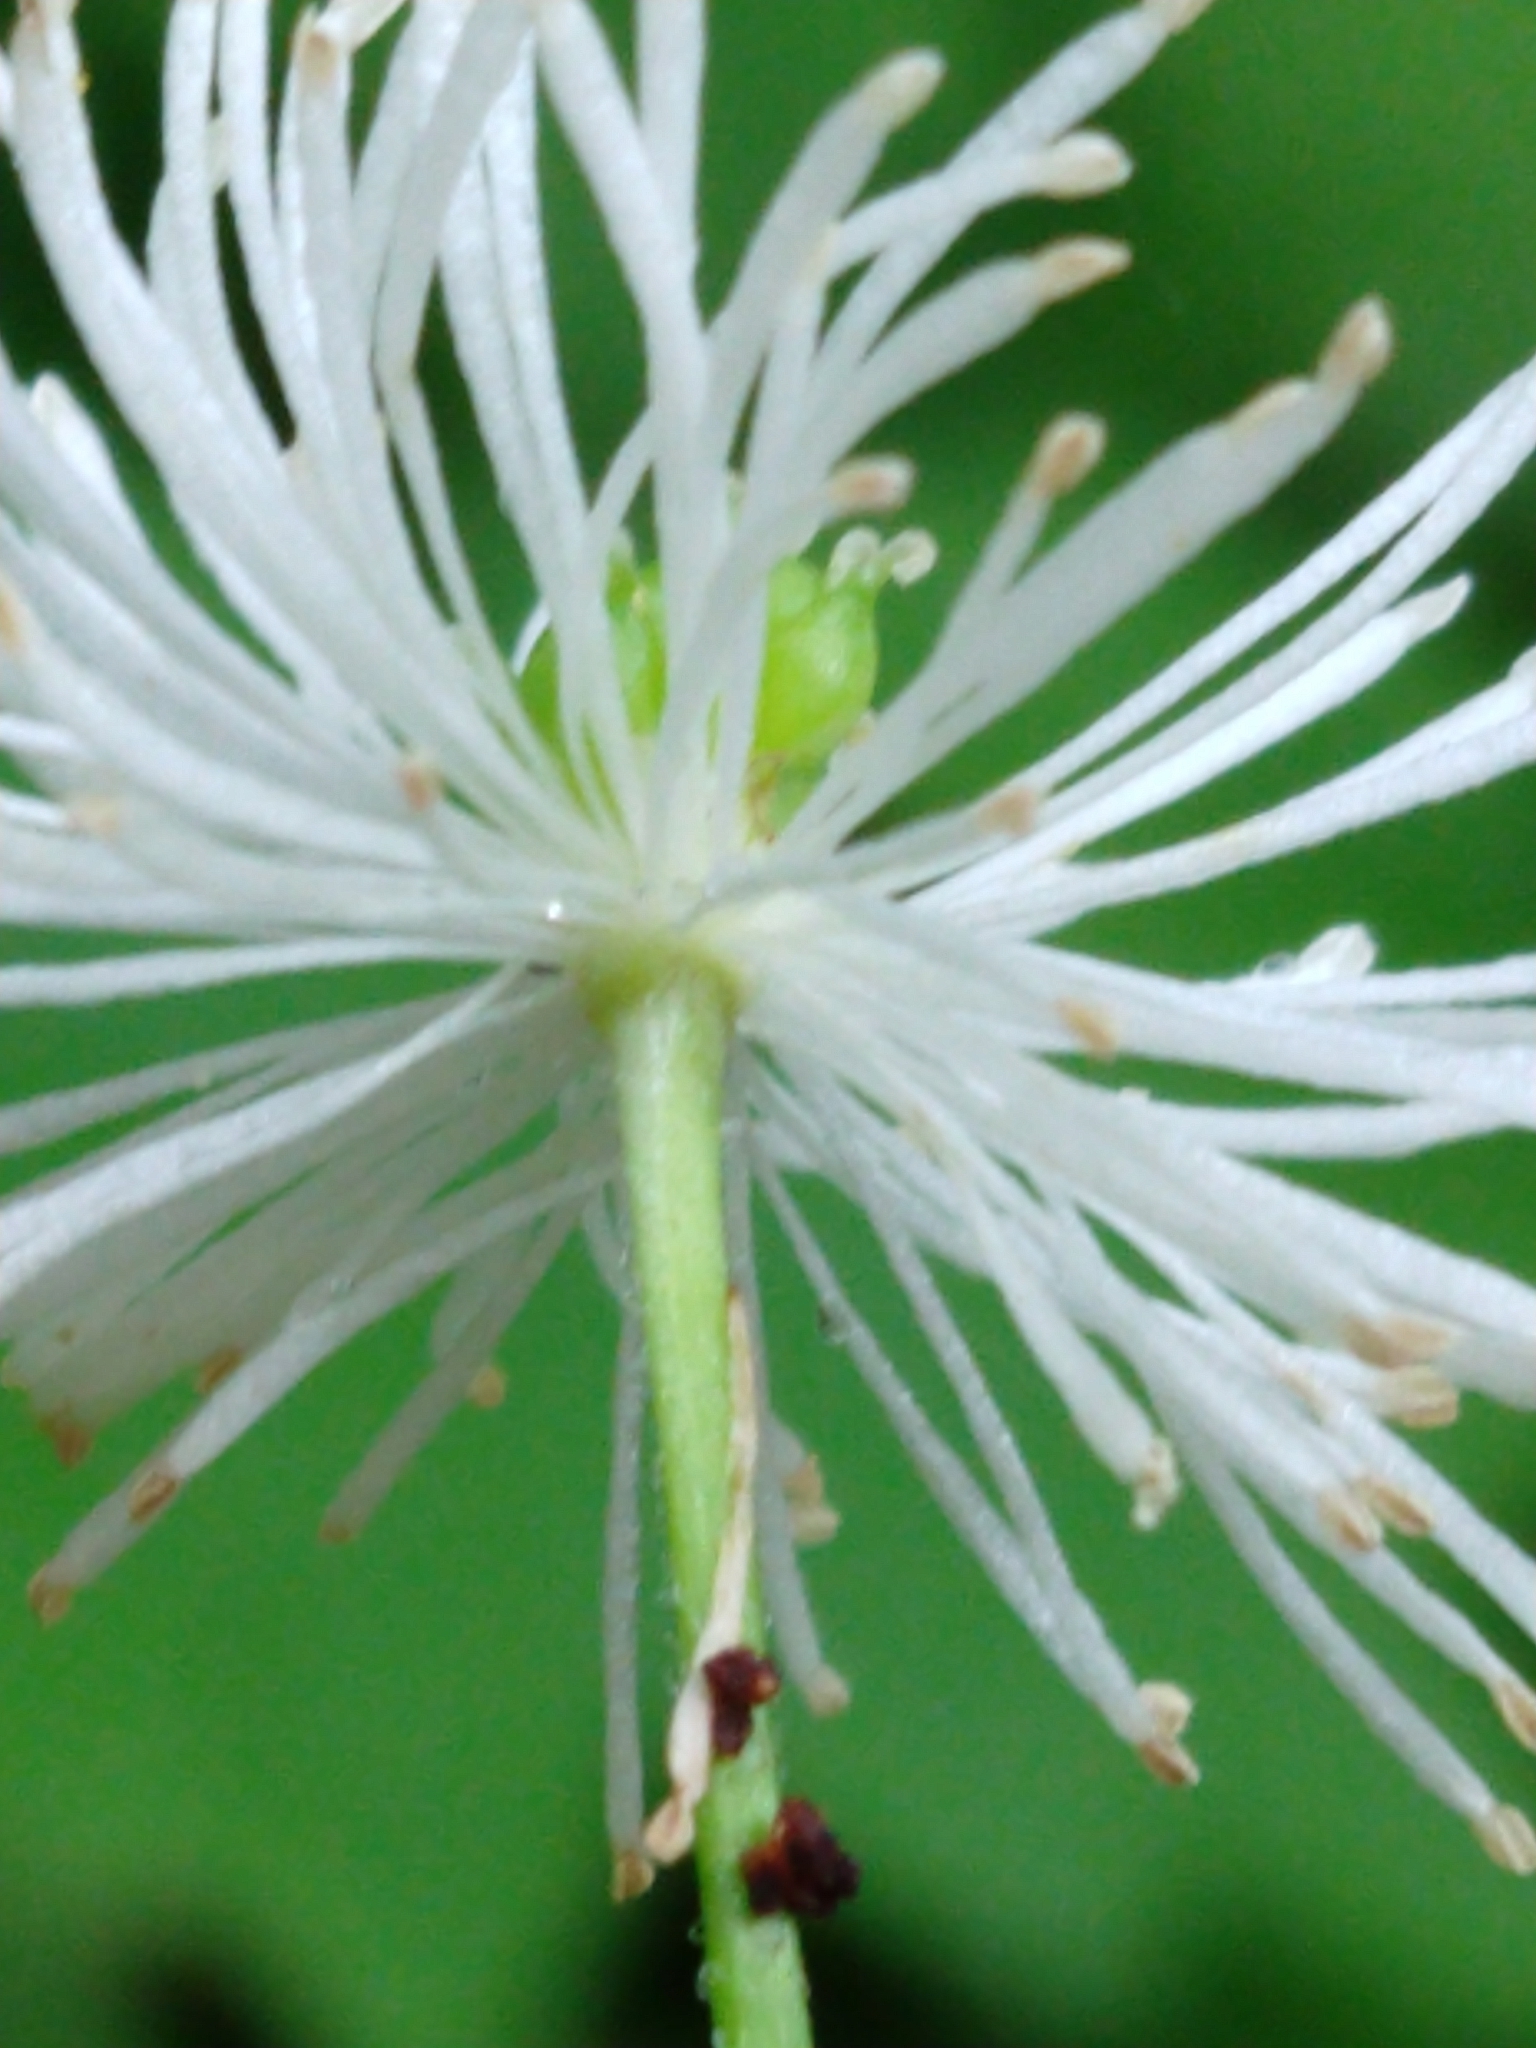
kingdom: Plantae
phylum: Tracheophyta
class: Magnoliopsida
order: Ranunculales
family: Ranunculaceae
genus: Trautvetteria
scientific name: Trautvetteria carolinensis
